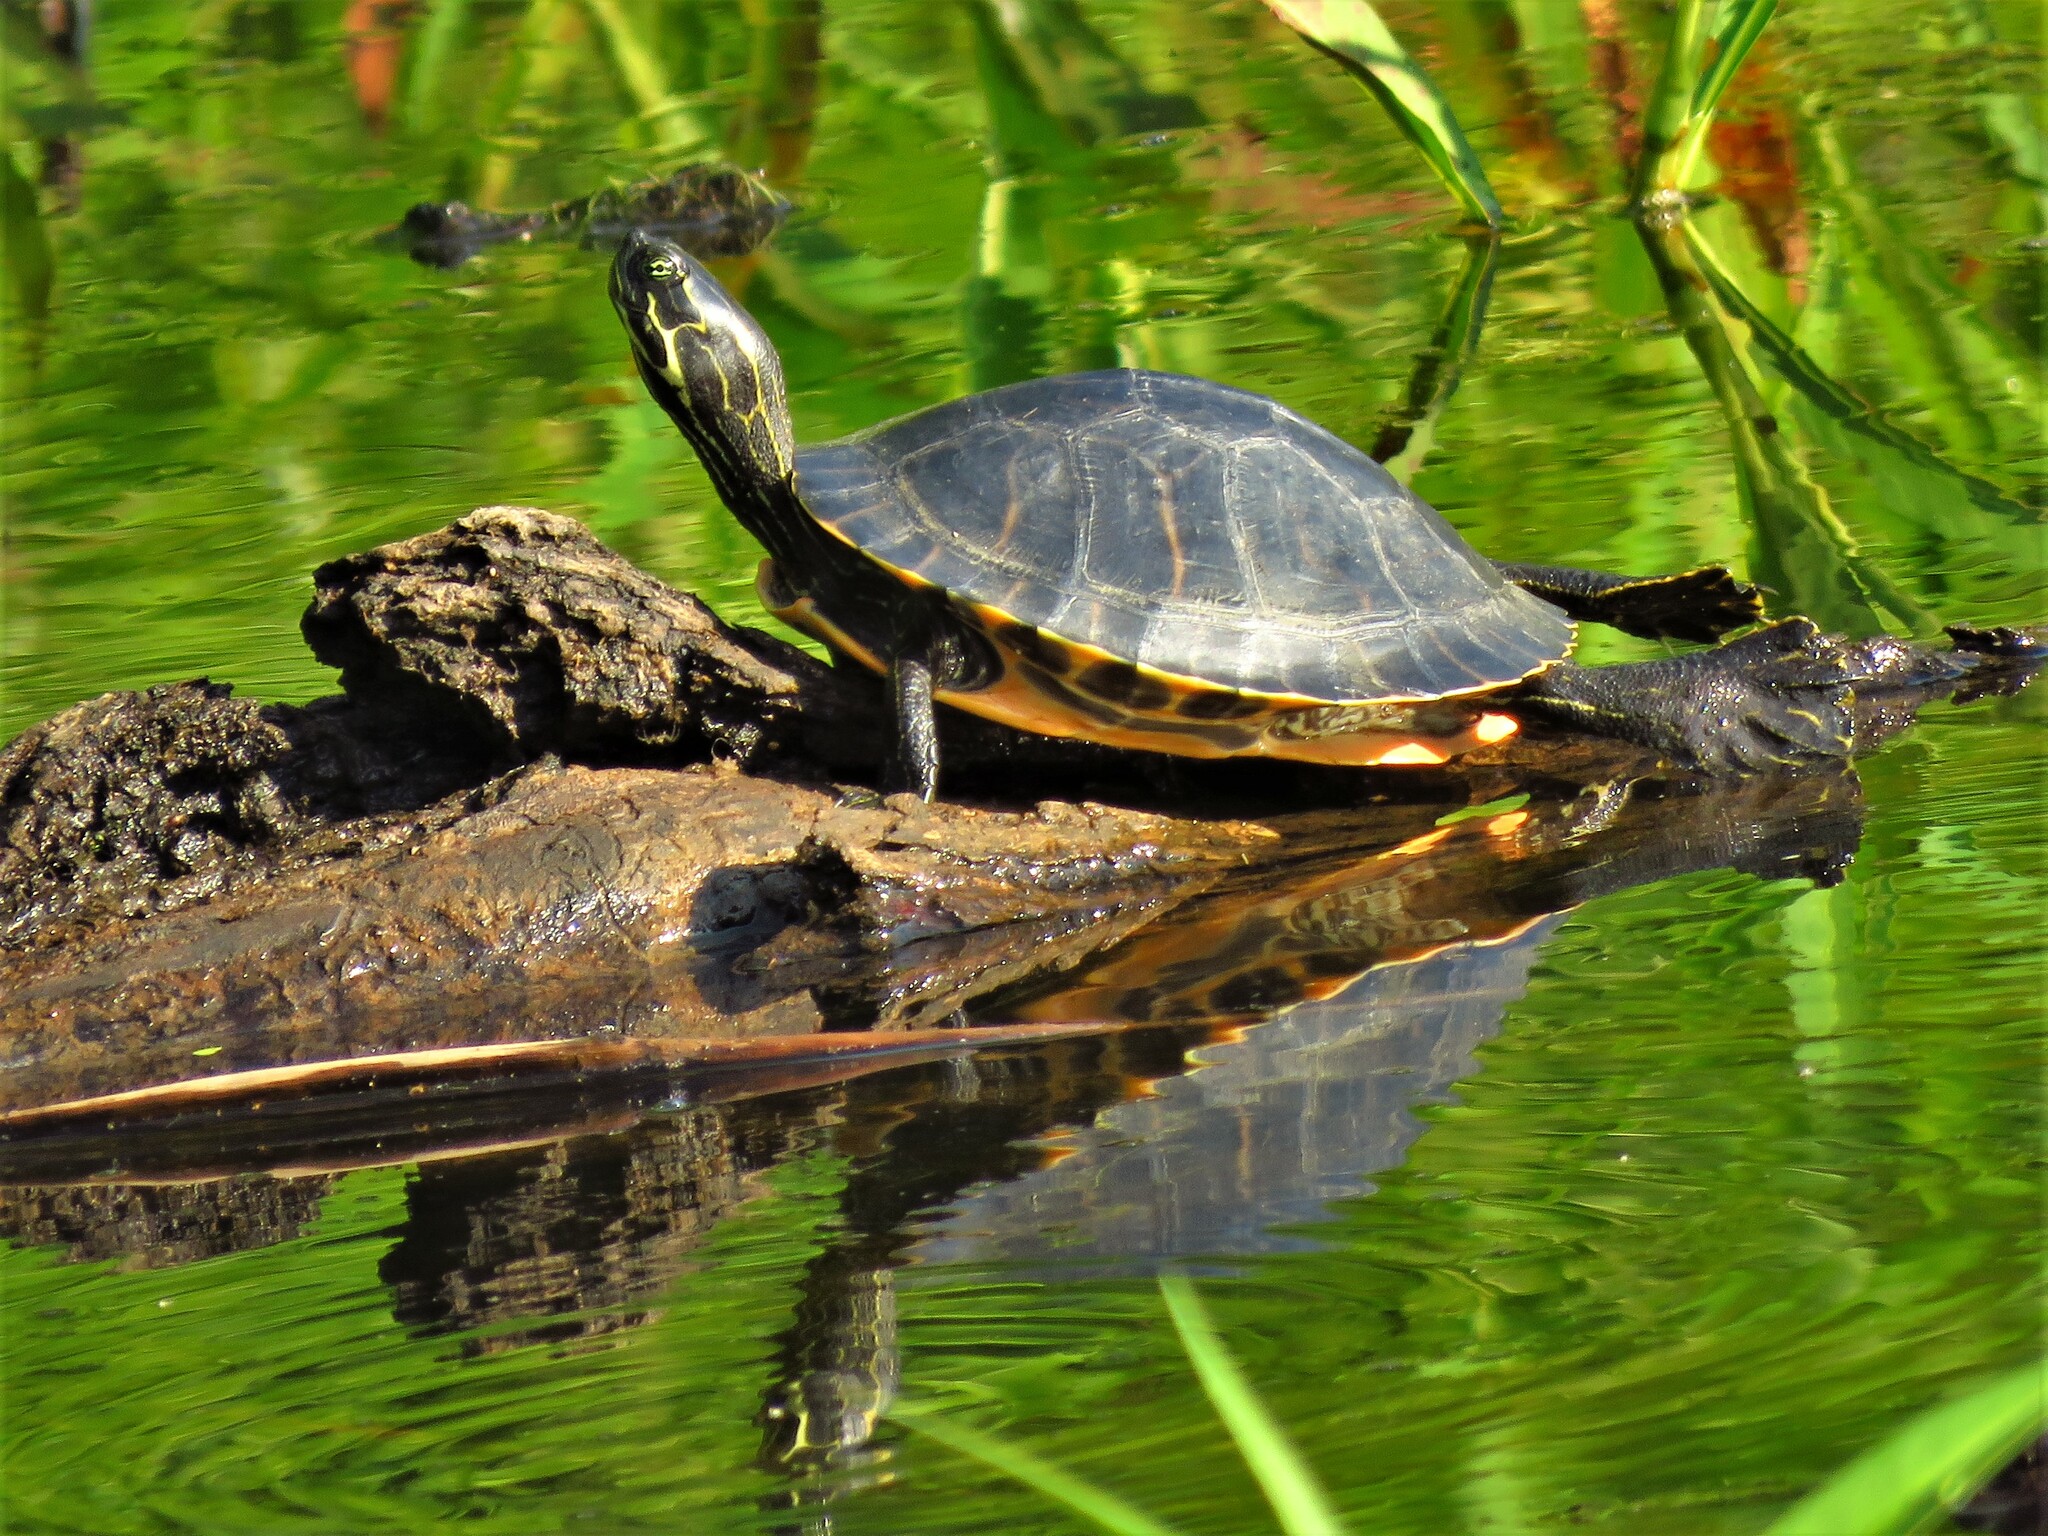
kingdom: Animalia
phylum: Chordata
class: Testudines
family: Emydidae
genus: Pseudemys
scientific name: Pseudemys concinna
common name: Eastern river cooter
